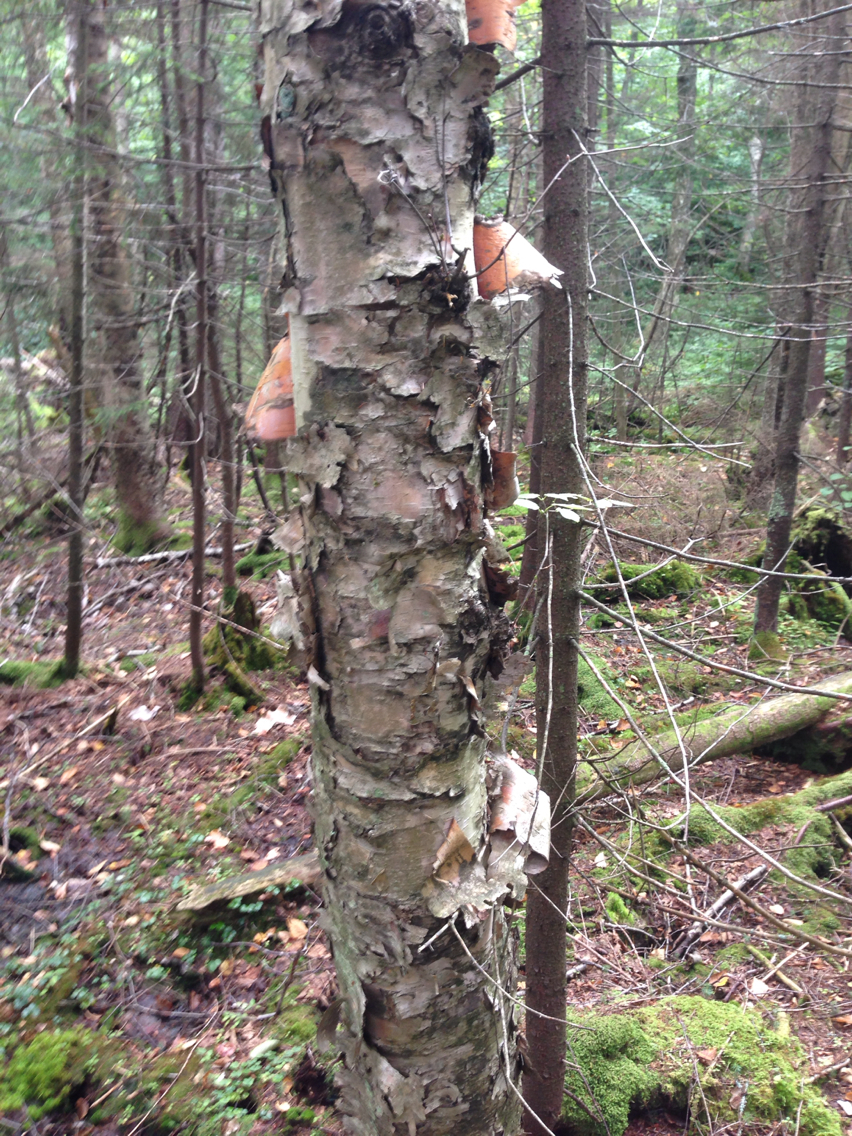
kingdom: Plantae
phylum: Tracheophyta
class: Magnoliopsida
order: Fagales
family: Betulaceae
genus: Betula
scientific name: Betula cordifolia
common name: Mountain white birch
